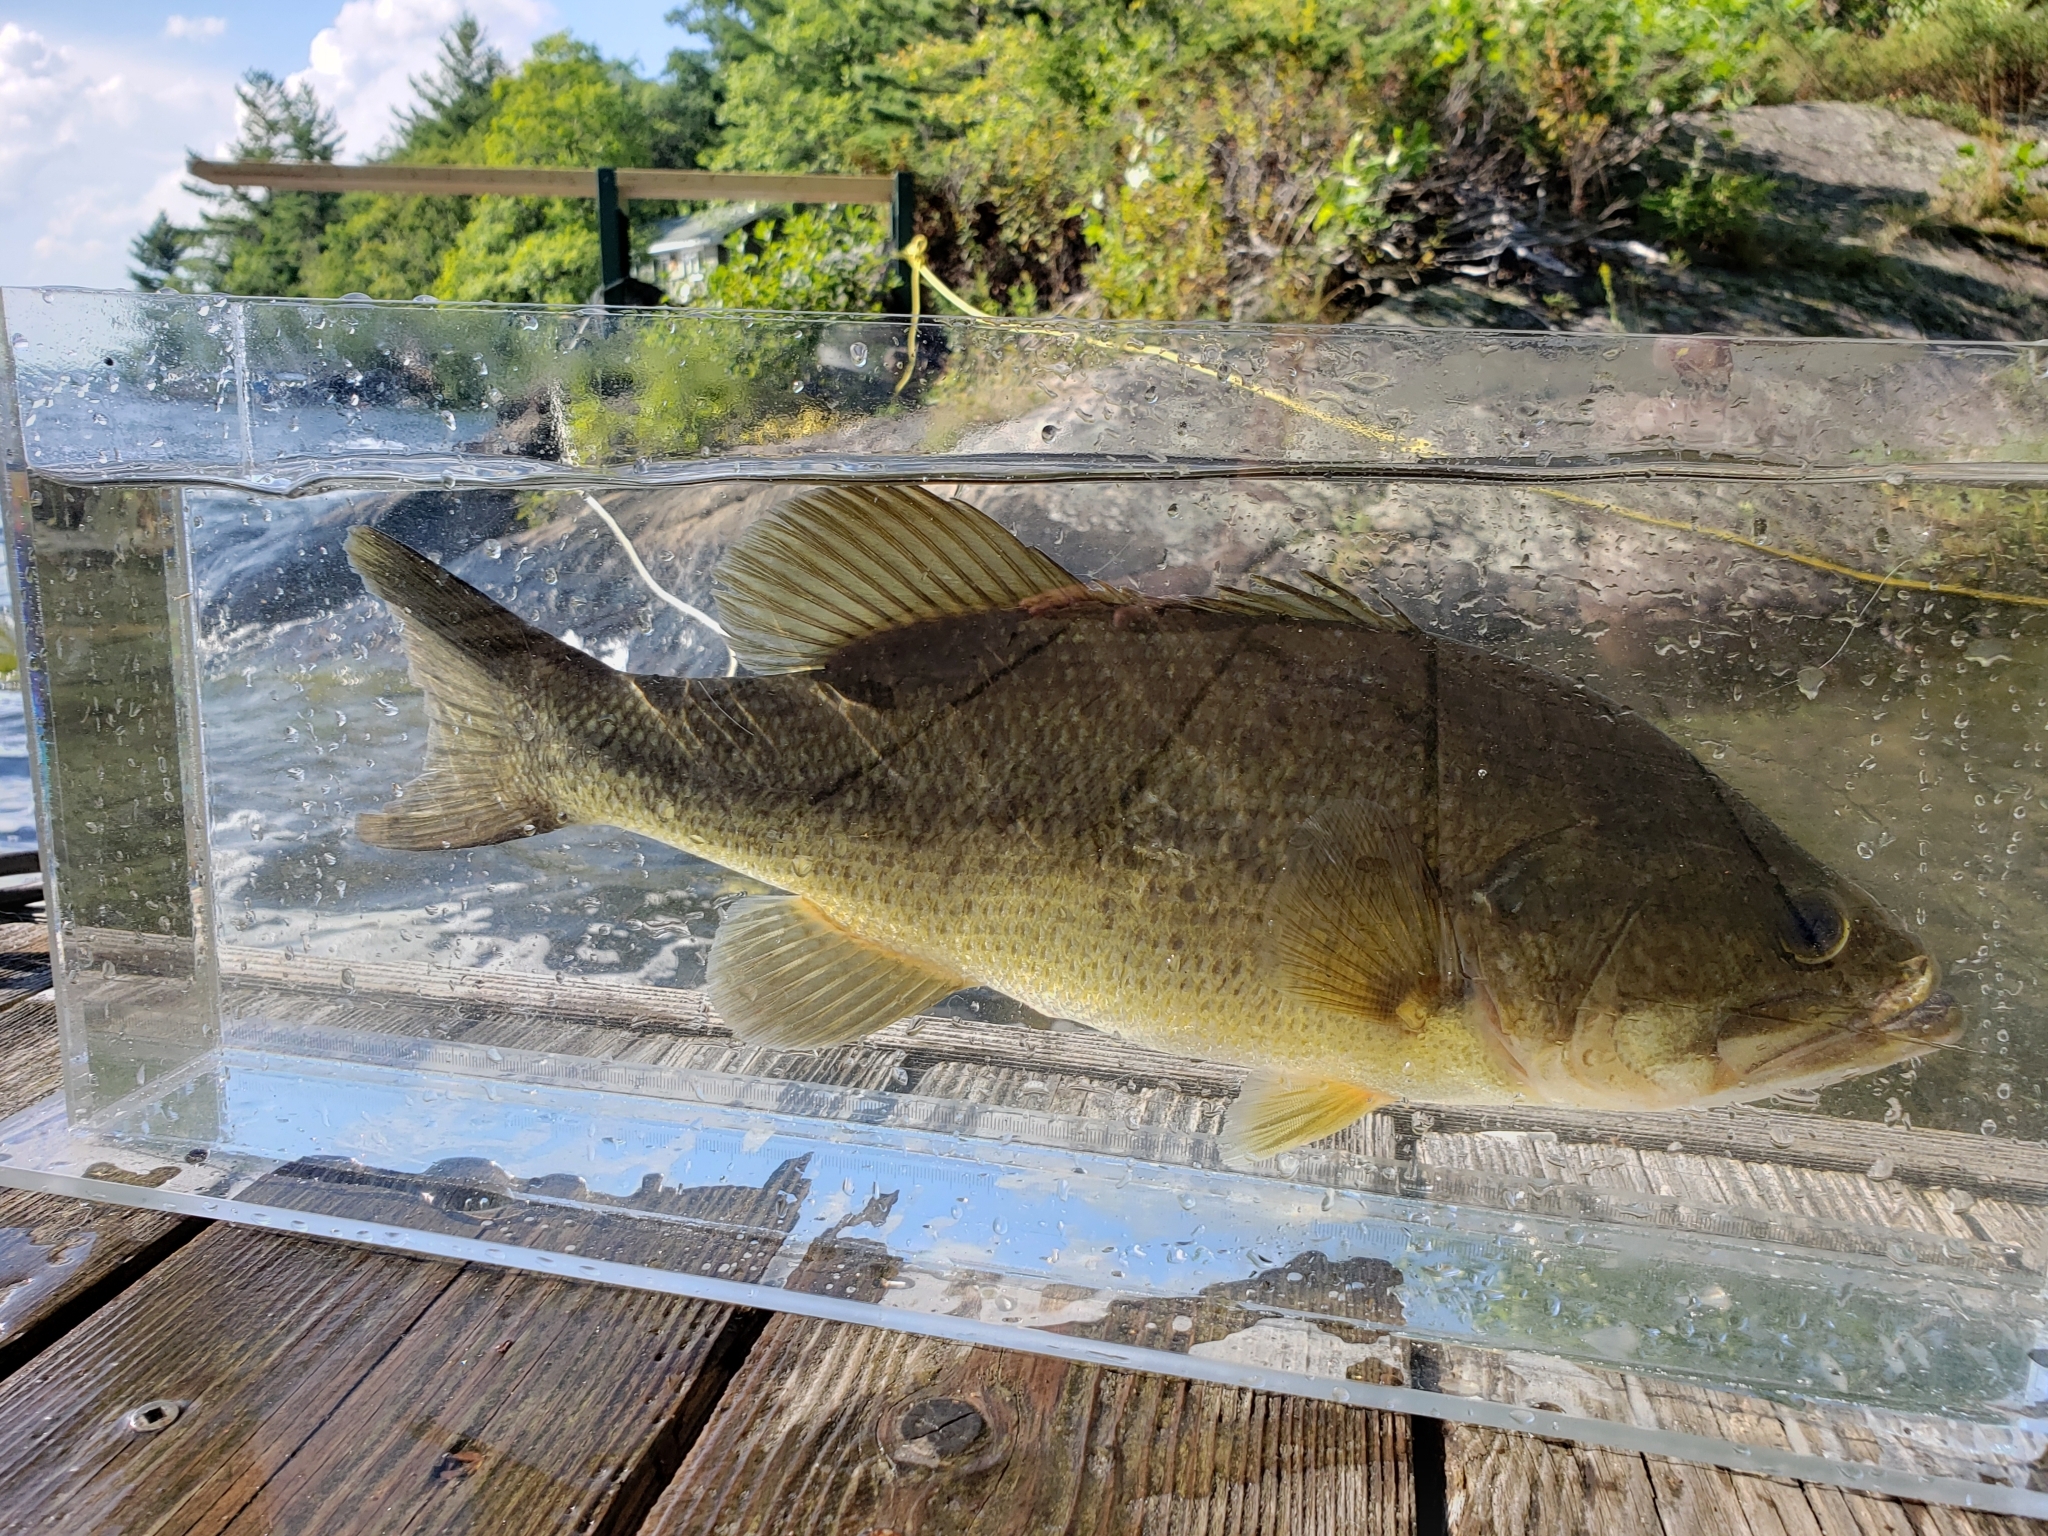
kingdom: Animalia
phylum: Chordata
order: Perciformes
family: Centrarchidae
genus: Micropterus
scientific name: Micropterus
